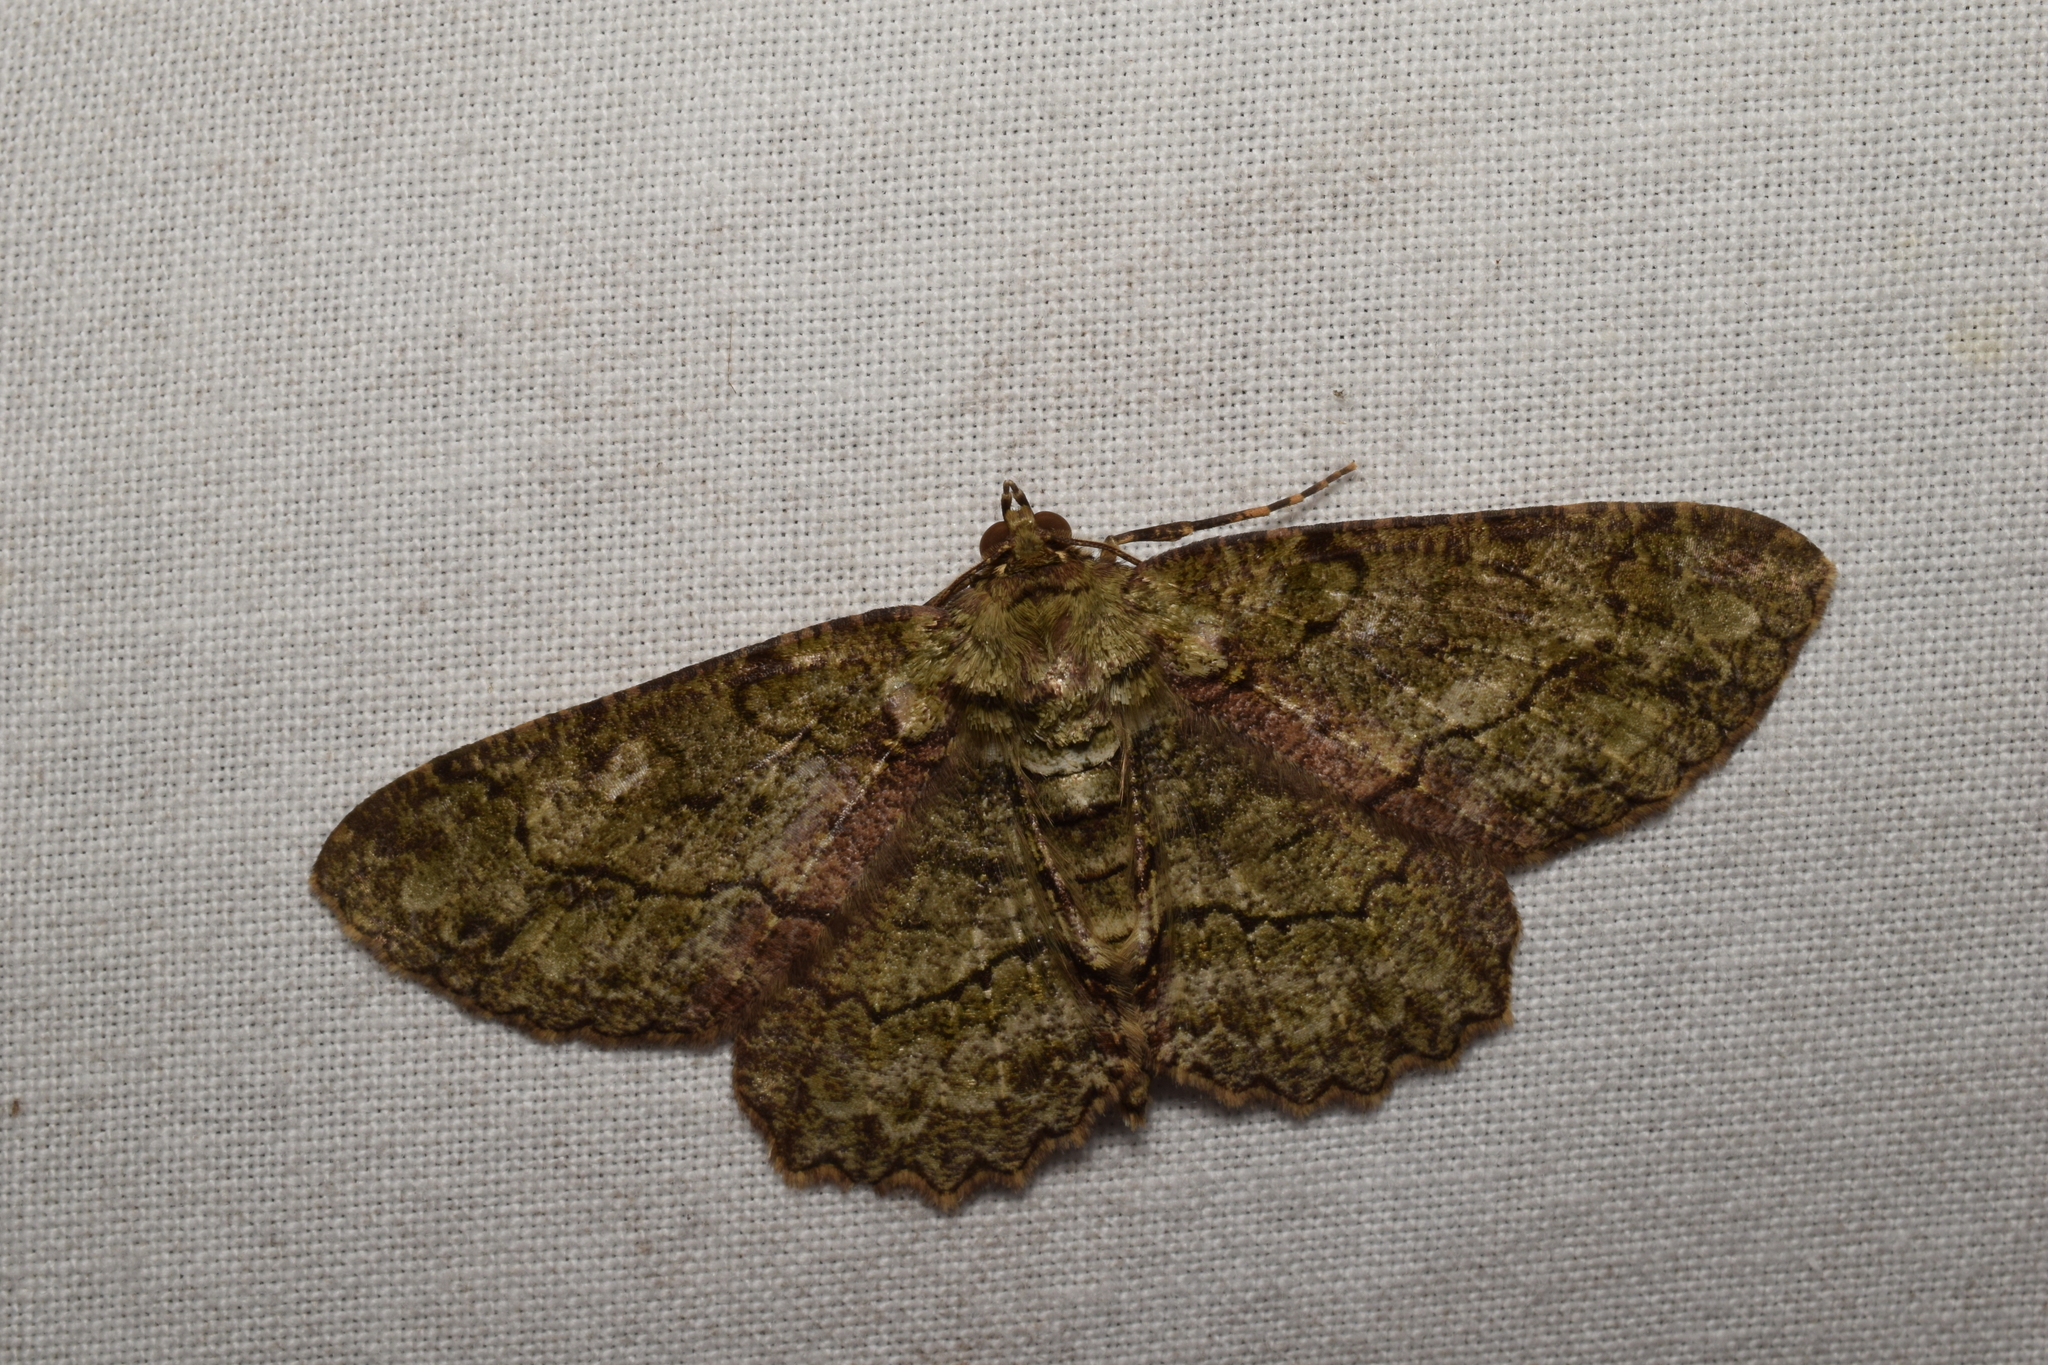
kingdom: Animalia
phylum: Arthropoda
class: Insecta
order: Lepidoptera
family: Geometridae
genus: Paradarisa
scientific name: Paradarisa chloauges
